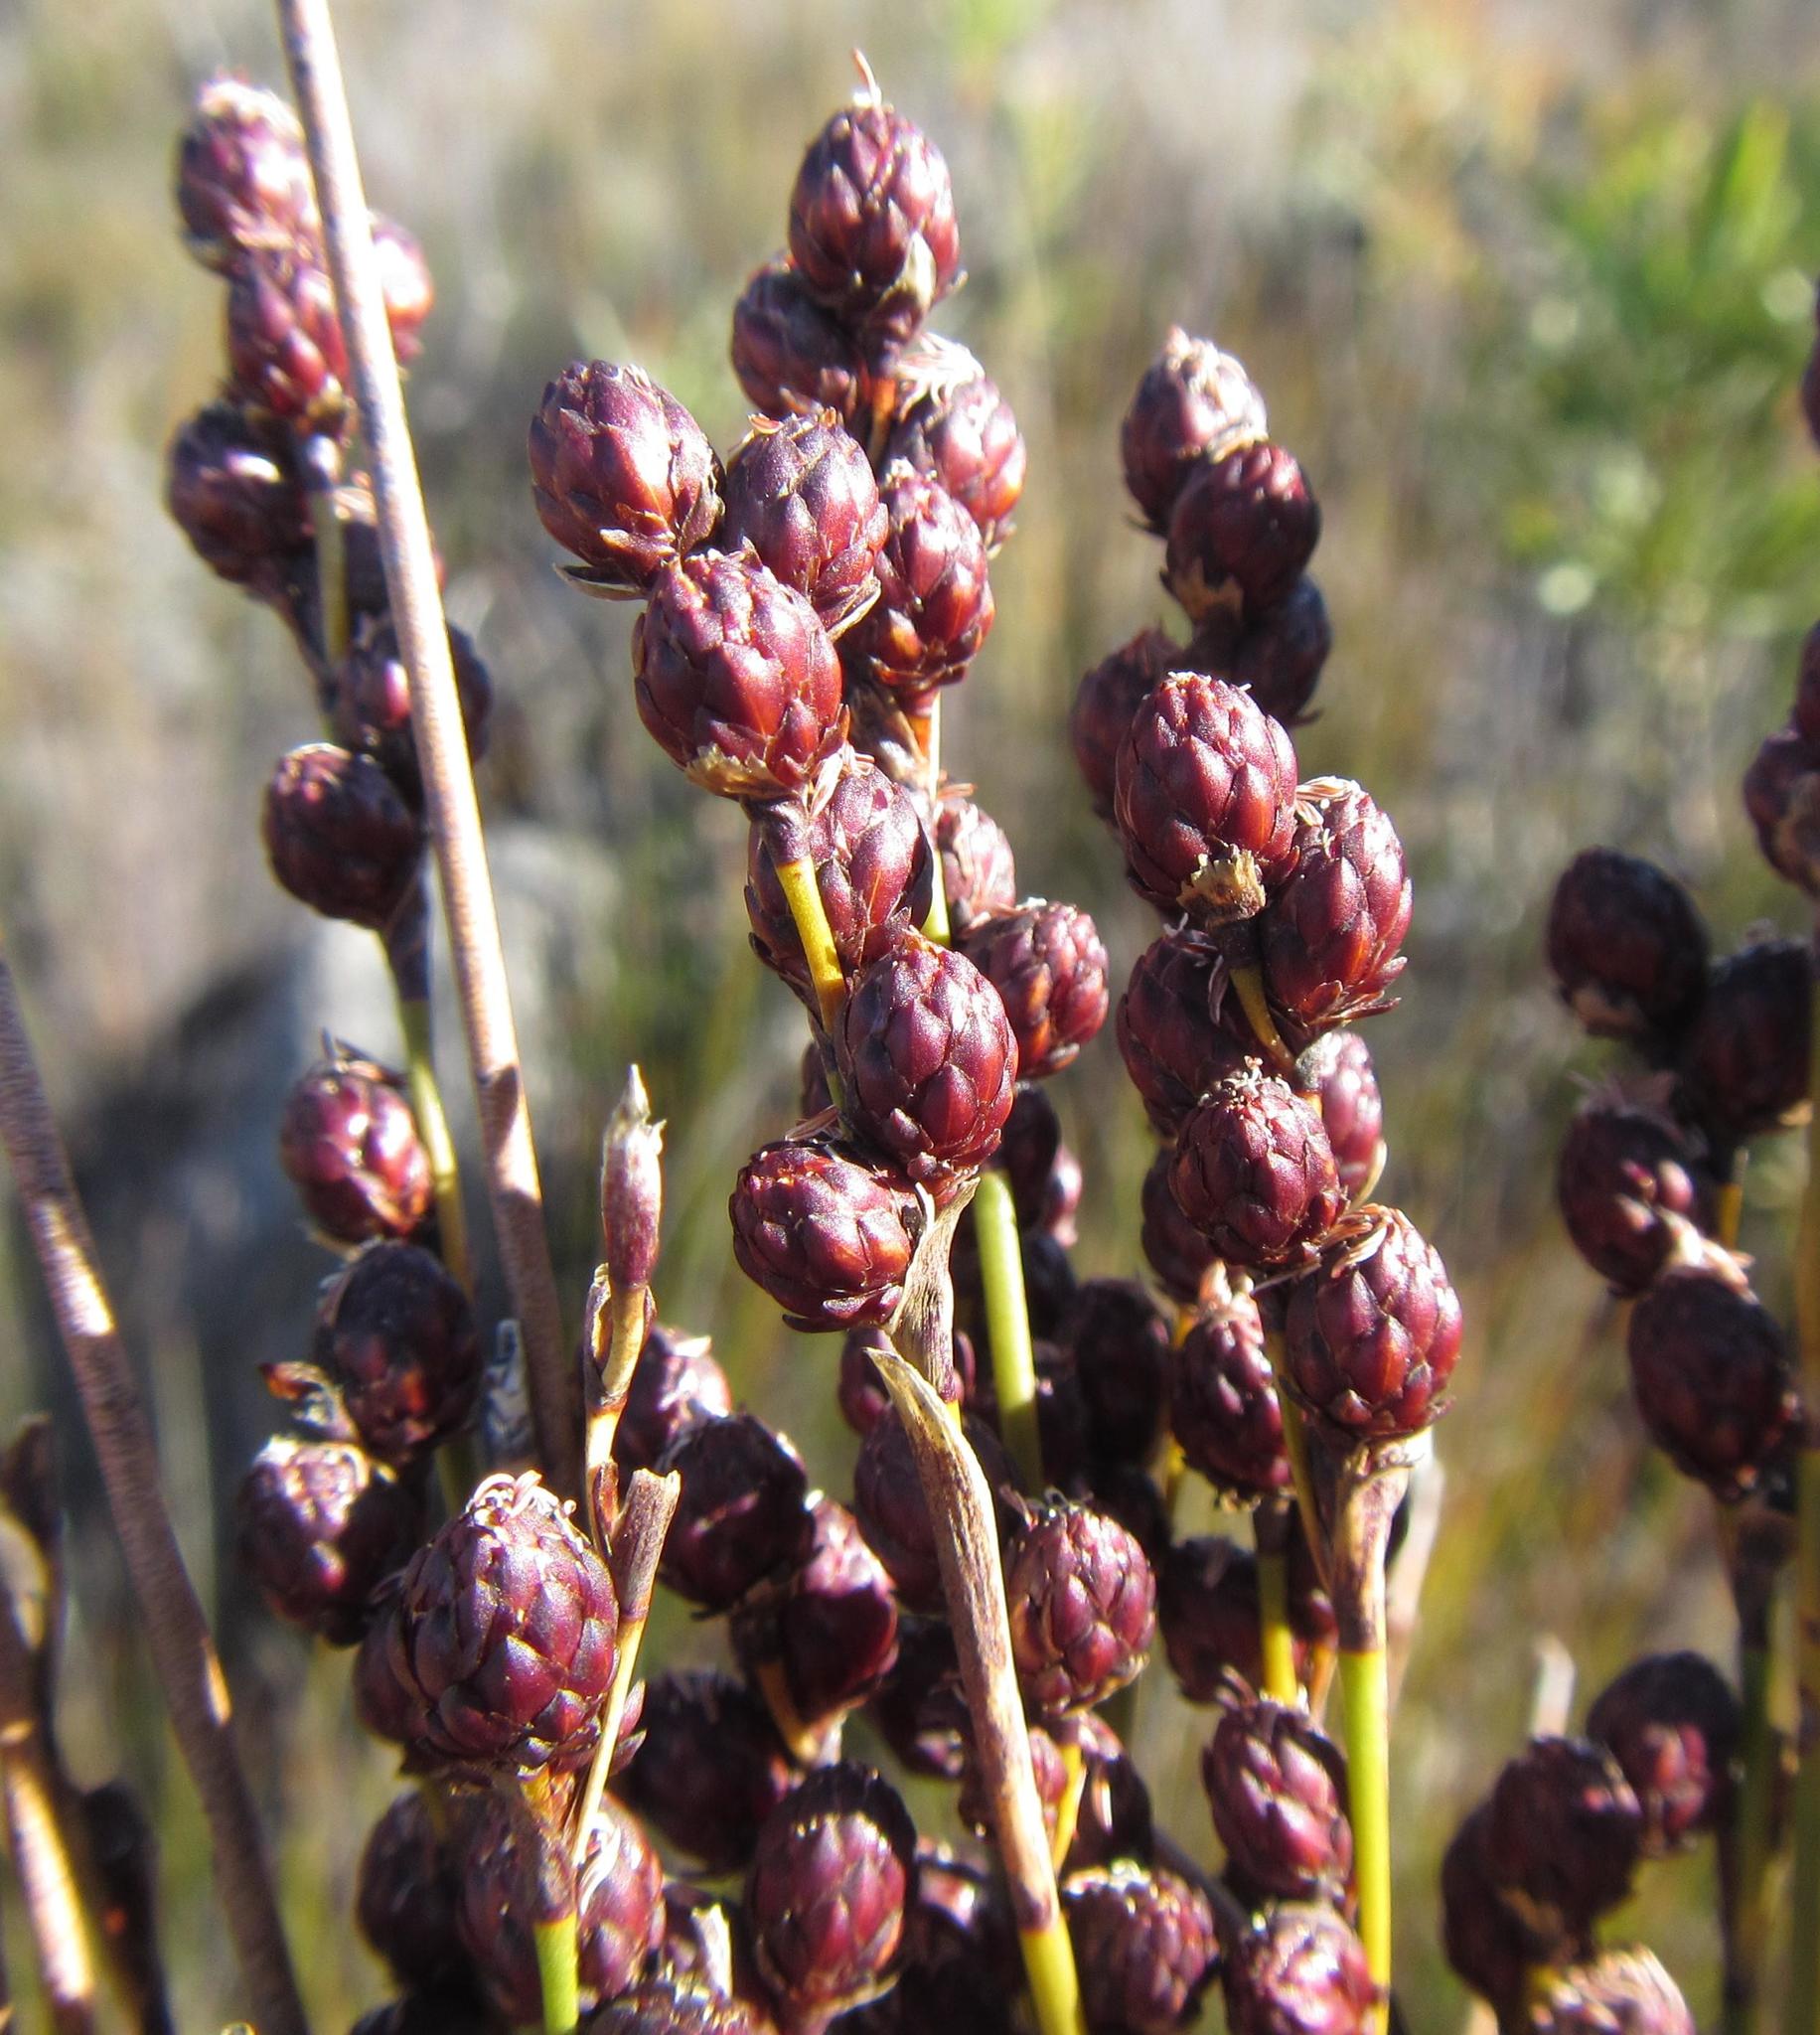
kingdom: Plantae
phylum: Tracheophyta
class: Liliopsida
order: Poales
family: Restionaceae
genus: Hypodiscus
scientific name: Hypodiscus laevigatus
